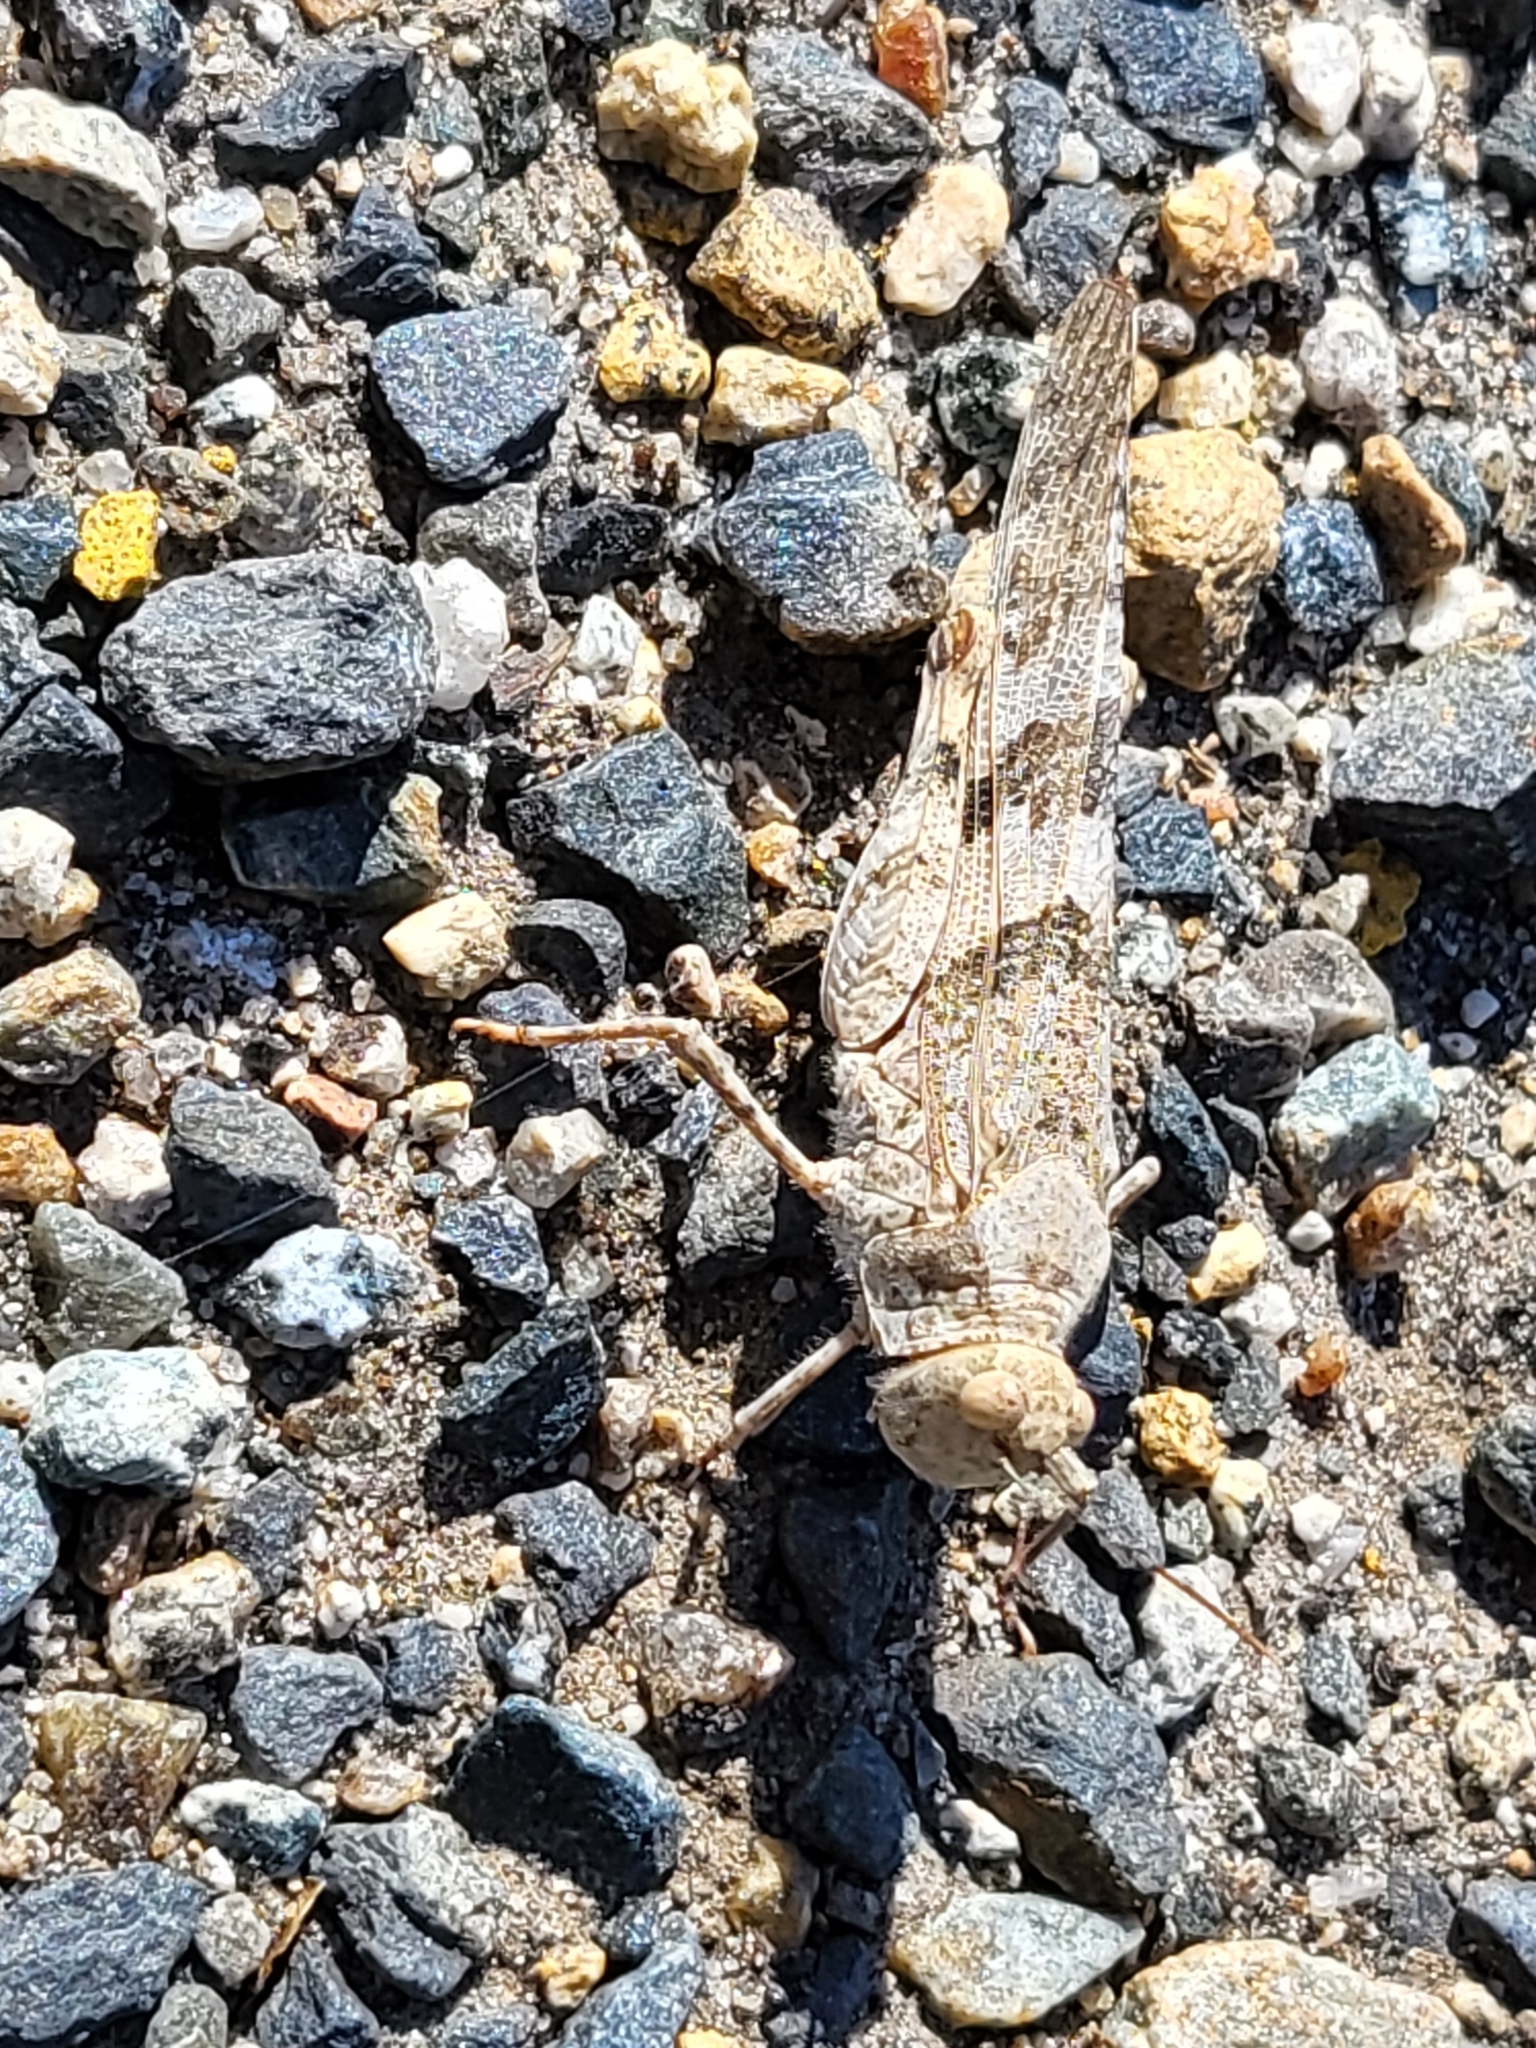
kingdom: Animalia
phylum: Arthropoda
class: Insecta
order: Orthoptera
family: Acrididae
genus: Trimerotropis
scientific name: Trimerotropis pallidipennis
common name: Pallid-winged grasshopper
